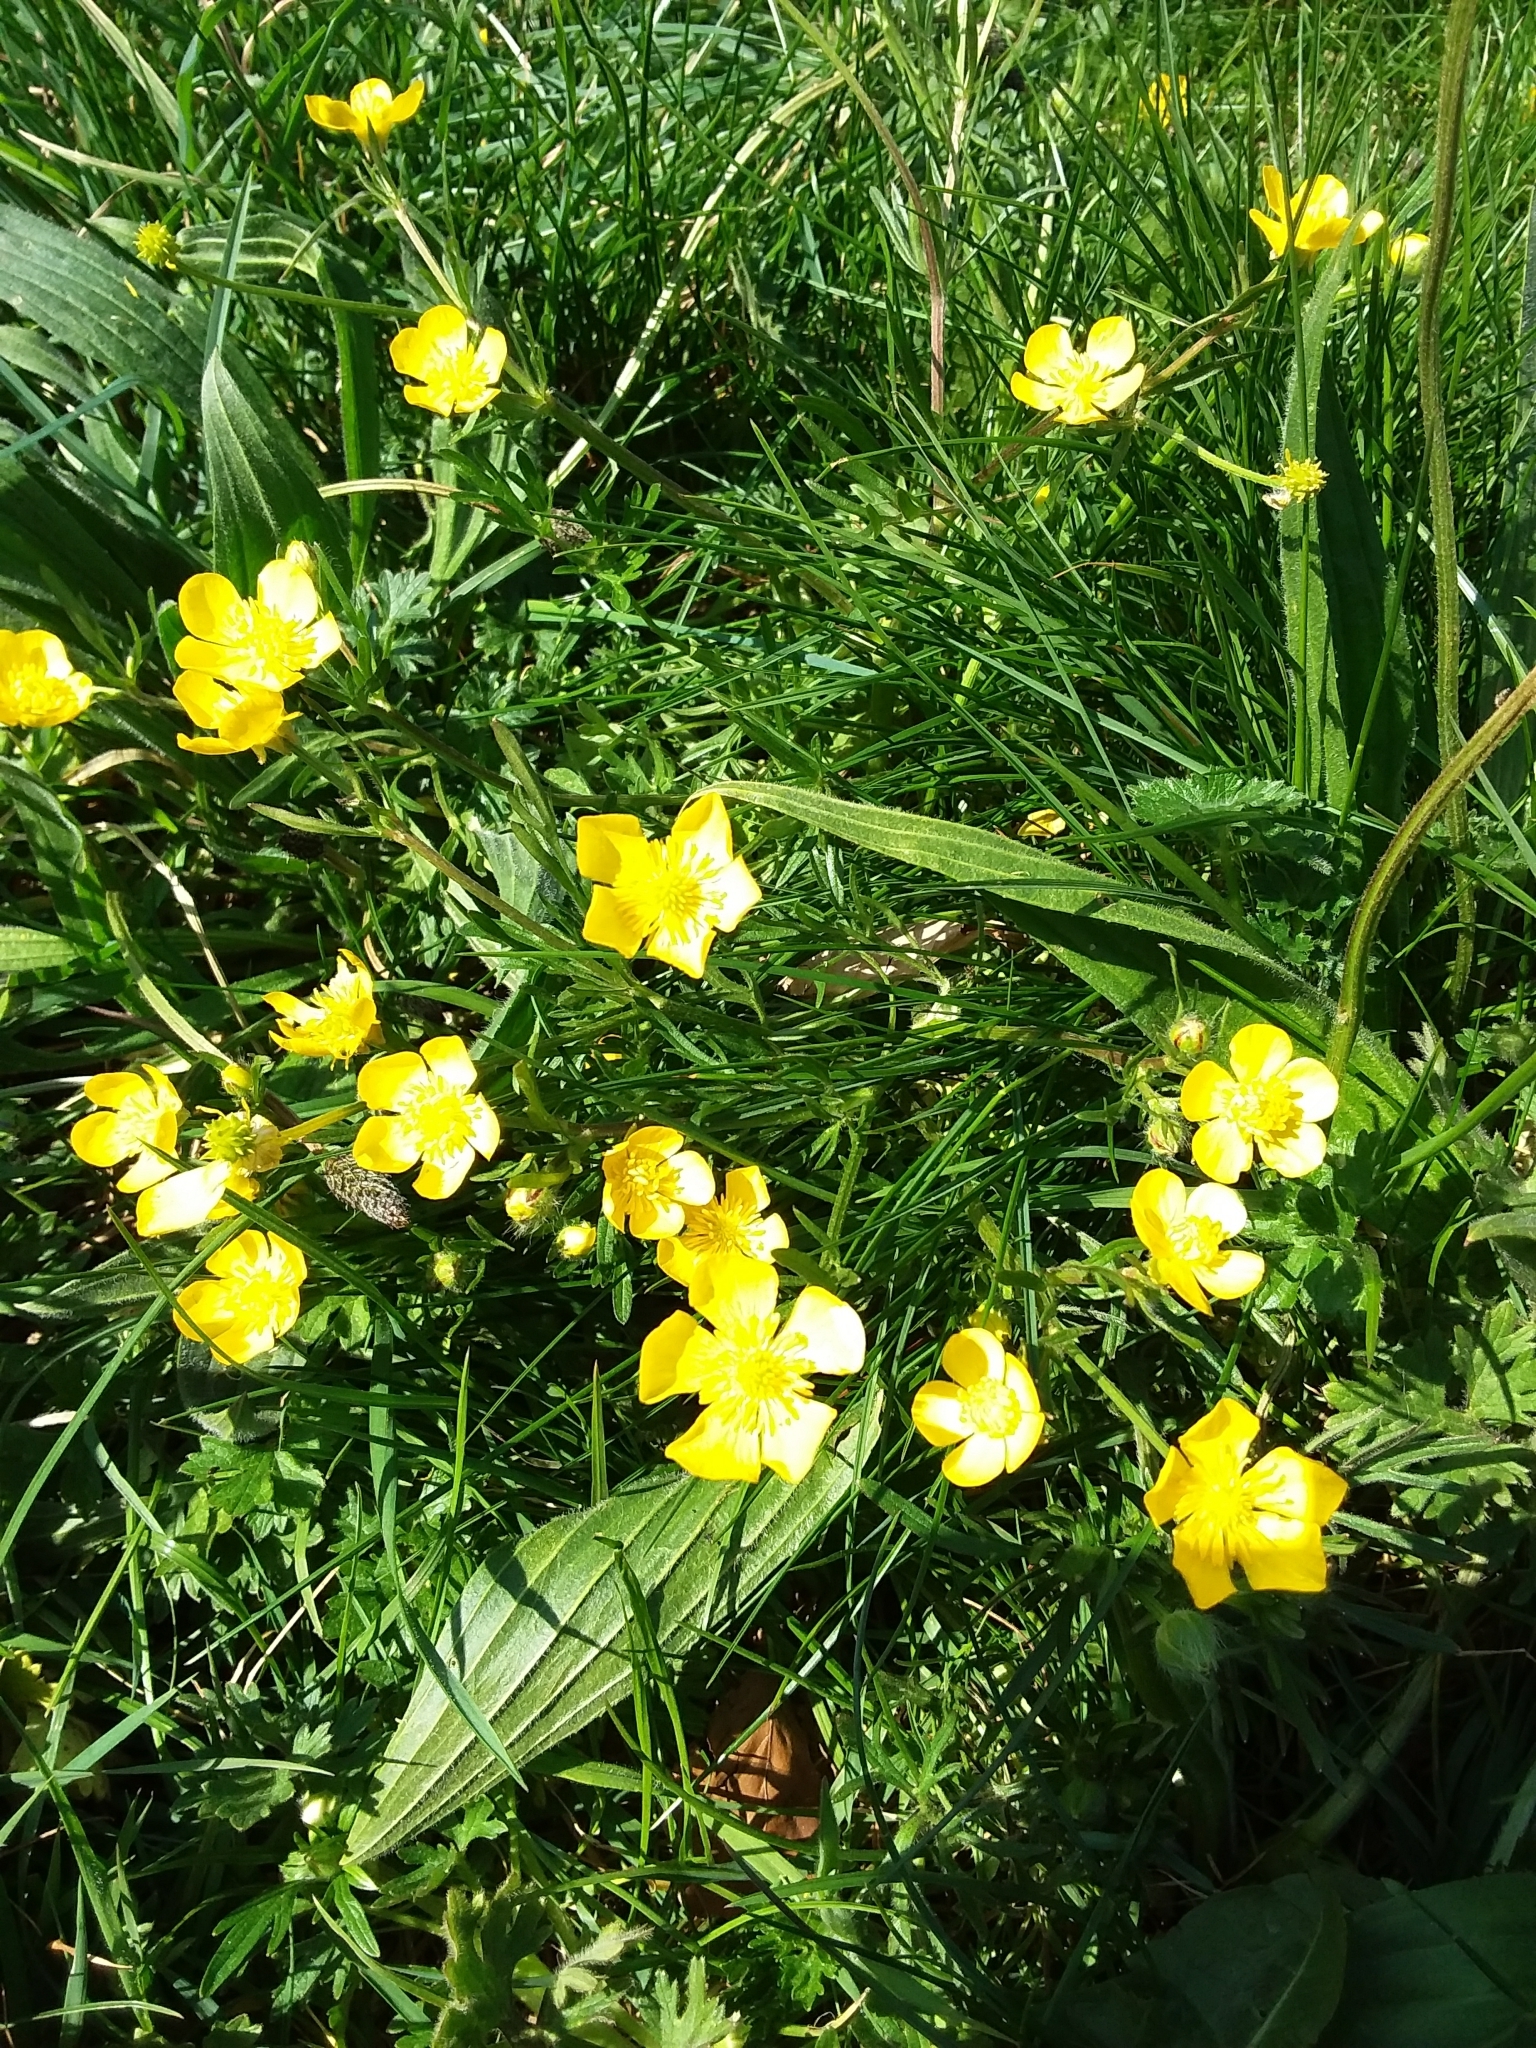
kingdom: Plantae
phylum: Tracheophyta
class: Magnoliopsida
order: Ranunculales
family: Ranunculaceae
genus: Ranunculus
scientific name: Ranunculus bulbosus
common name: Bulbous buttercup
